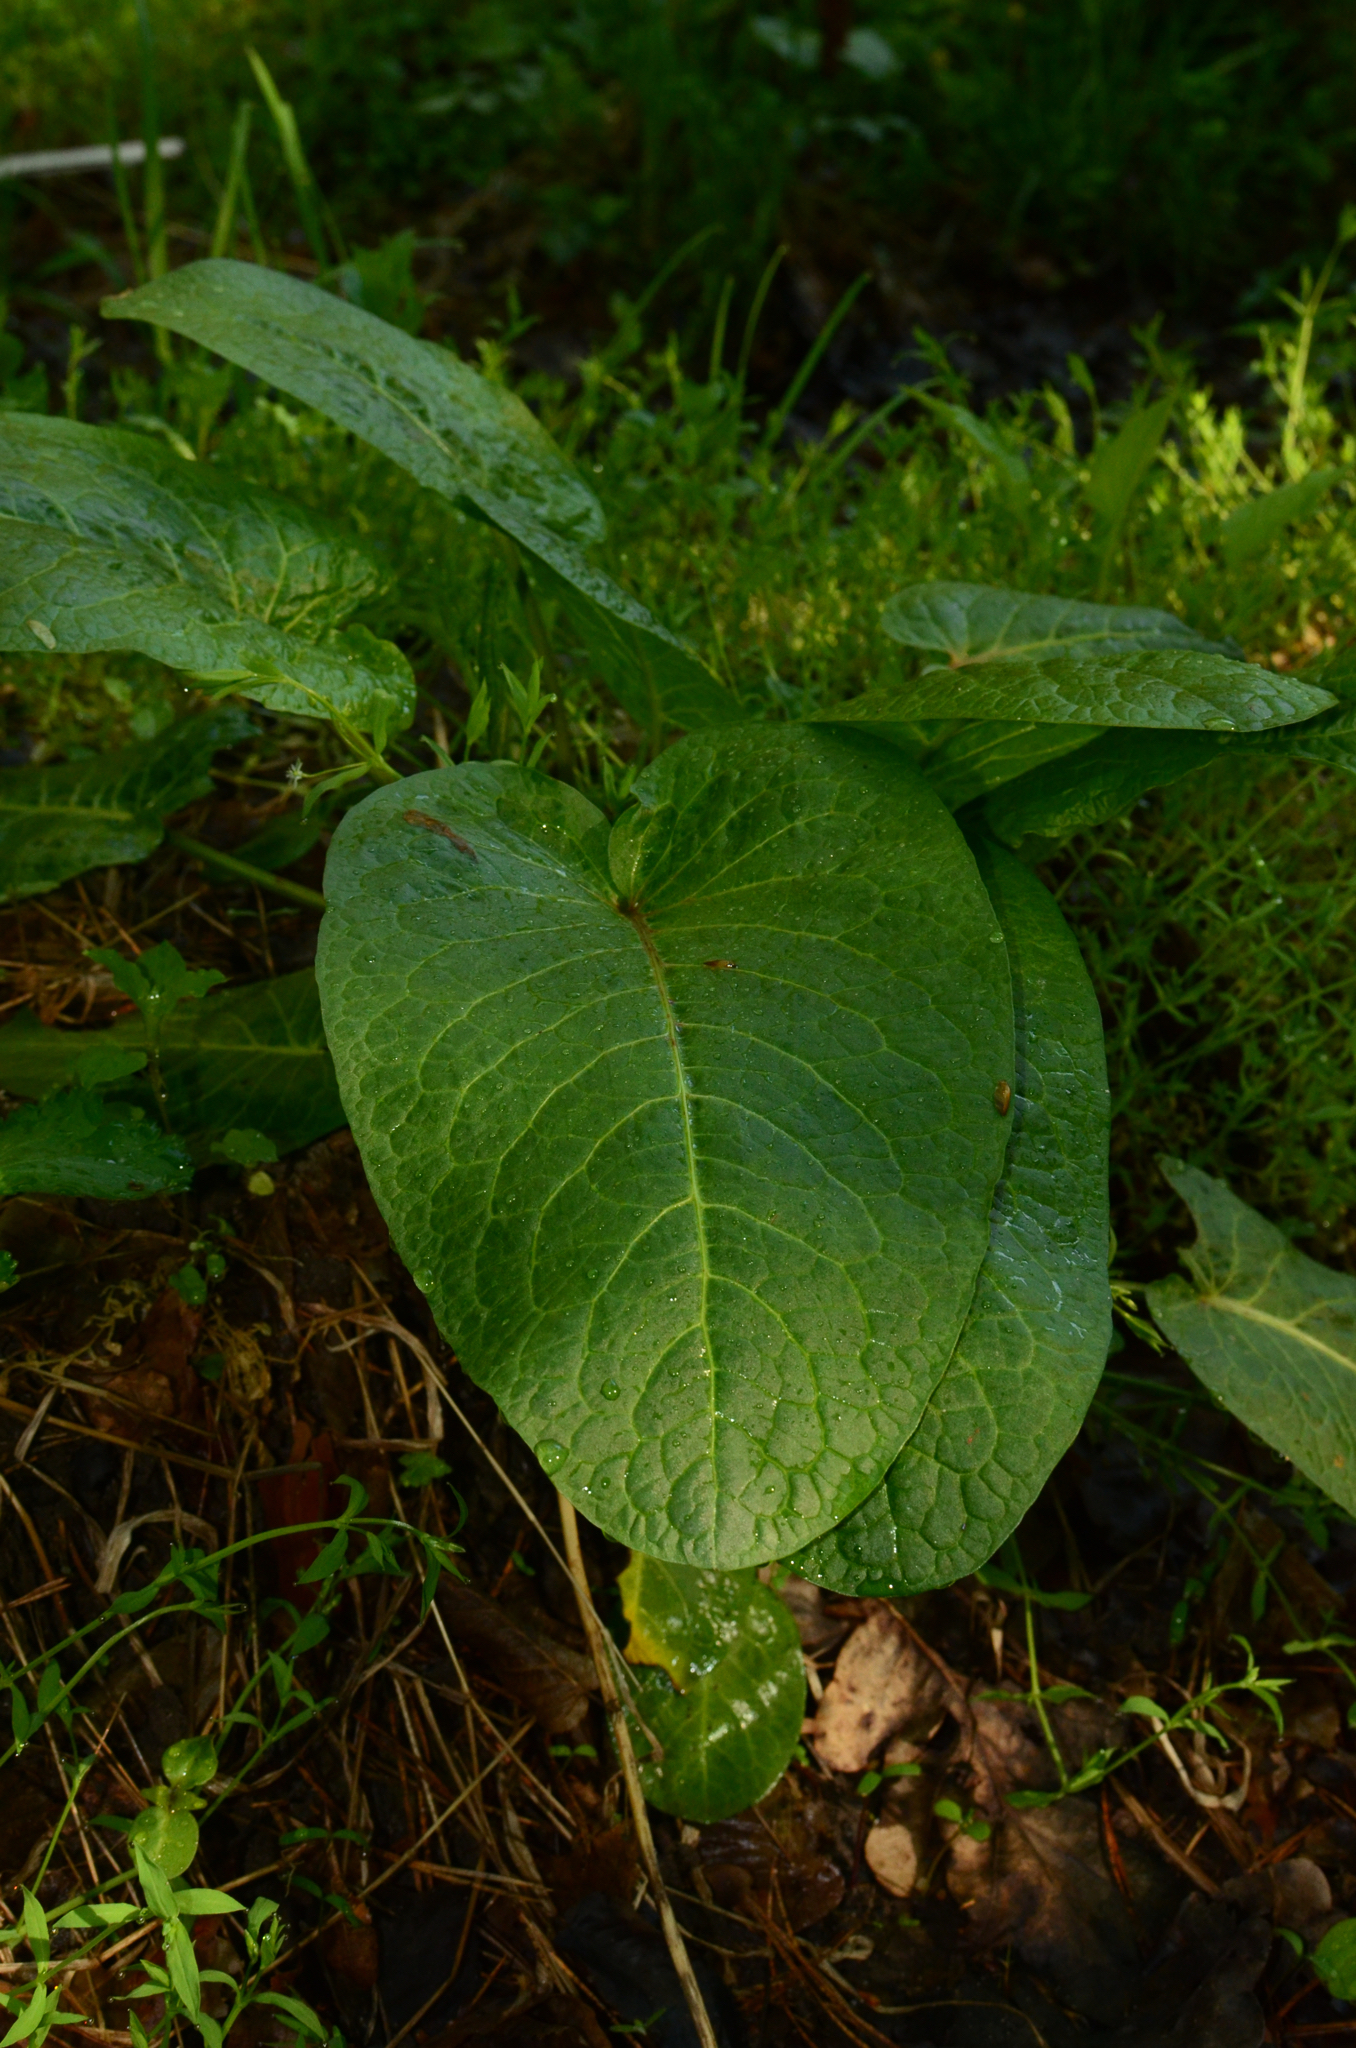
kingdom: Plantae
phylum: Tracheophyta
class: Magnoliopsida
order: Caryophyllales
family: Polygonaceae
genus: Rumex
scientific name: Rumex obtusifolius
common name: Bitter dock
